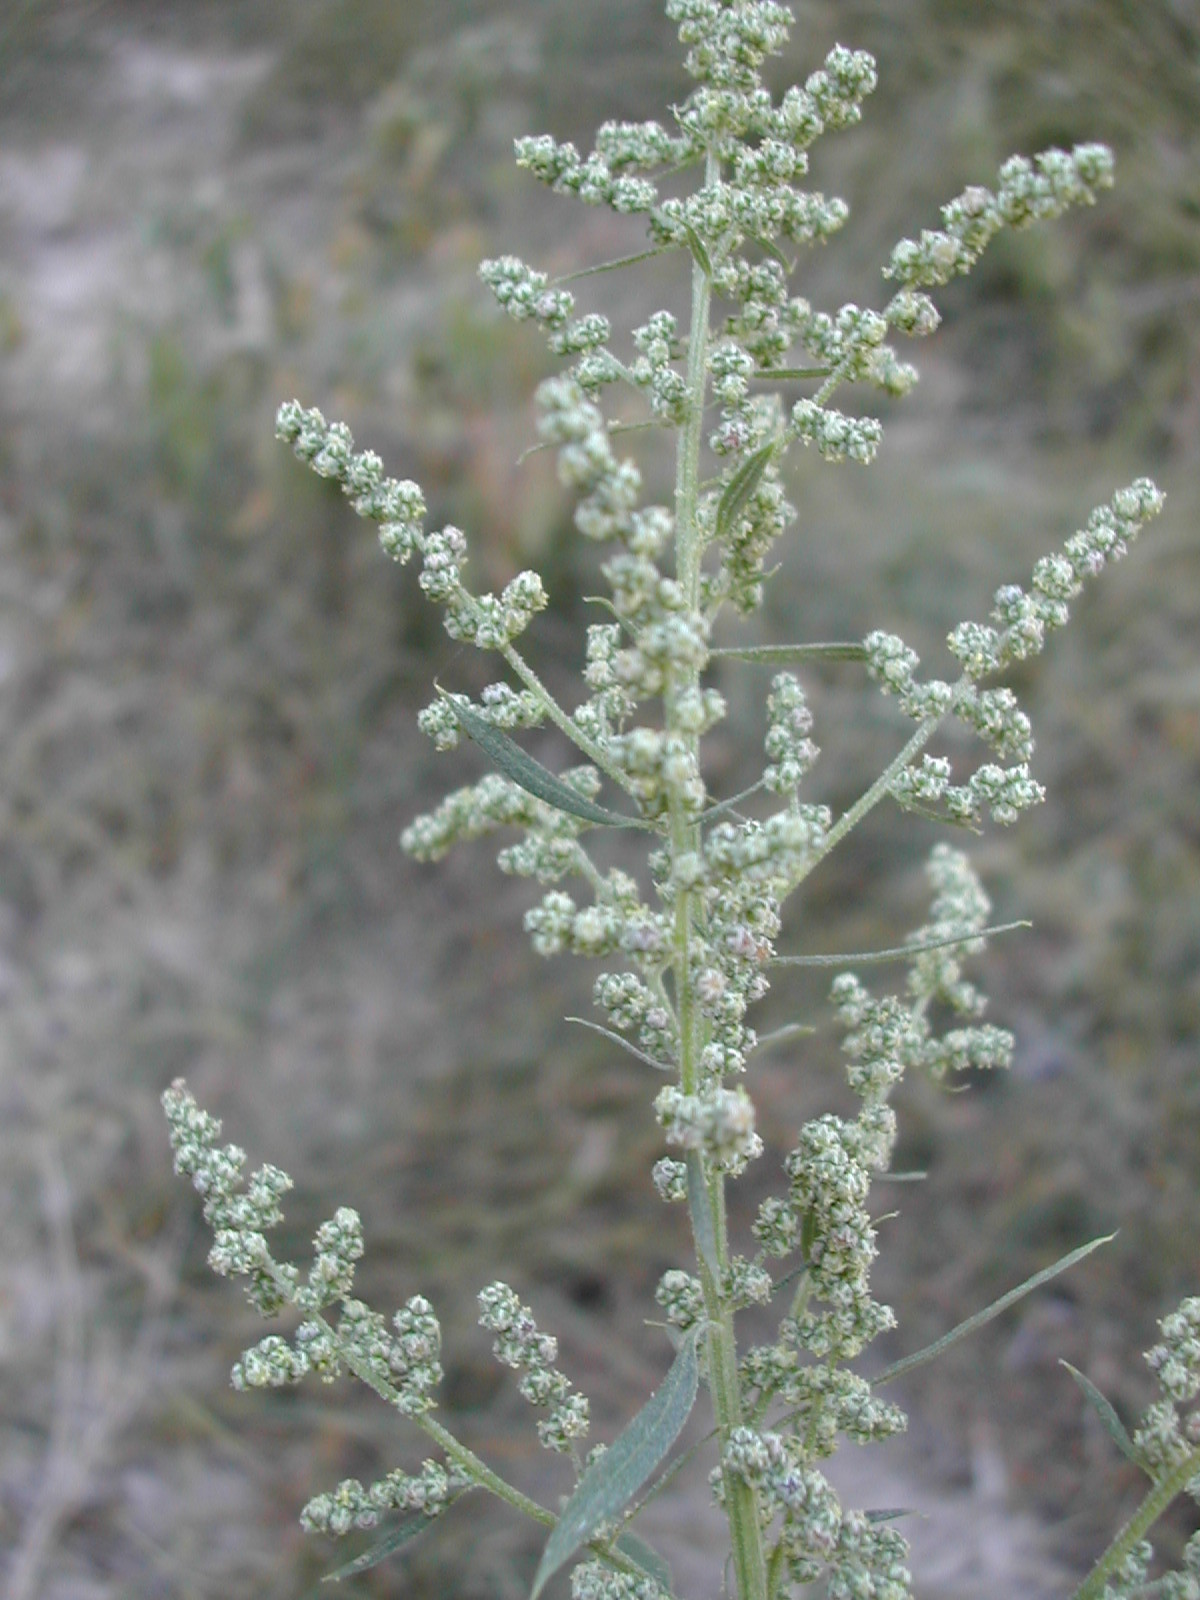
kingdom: Plantae
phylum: Tracheophyta
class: Magnoliopsida
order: Caryophyllales
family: Amaranthaceae
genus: Chenopodium
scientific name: Chenopodium album
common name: Fat-hen
